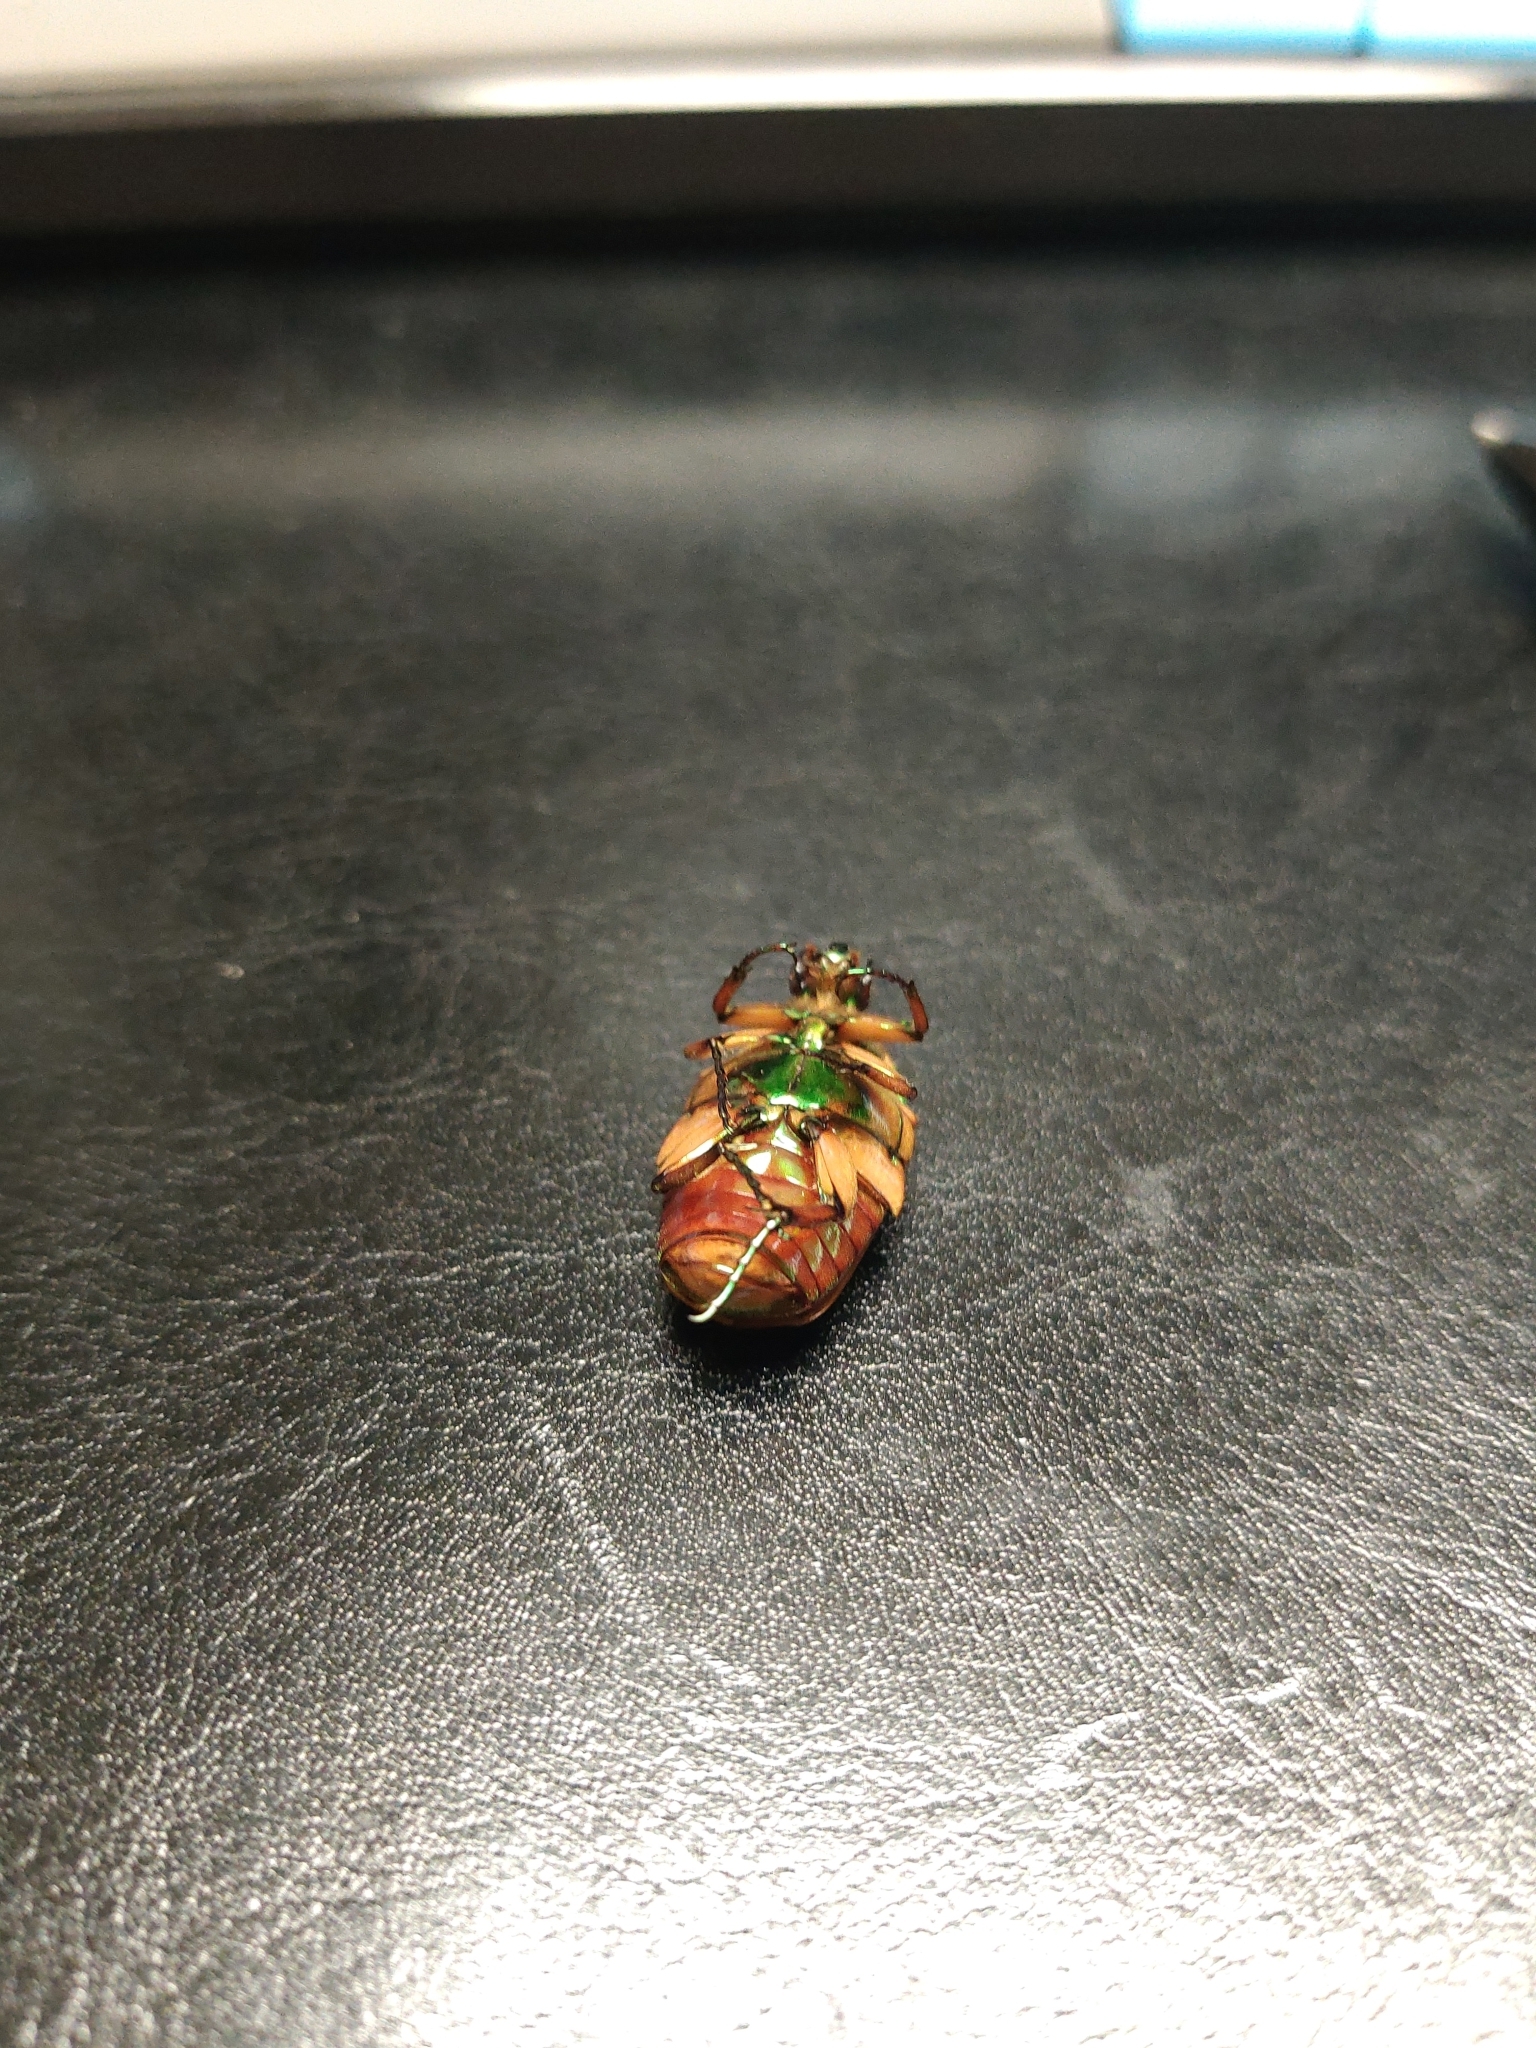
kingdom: Animalia
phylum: Arthropoda
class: Insecta
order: Coleoptera
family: Scarabaeidae
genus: Cotinis
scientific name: Cotinis nitida
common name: Common green june beetle
